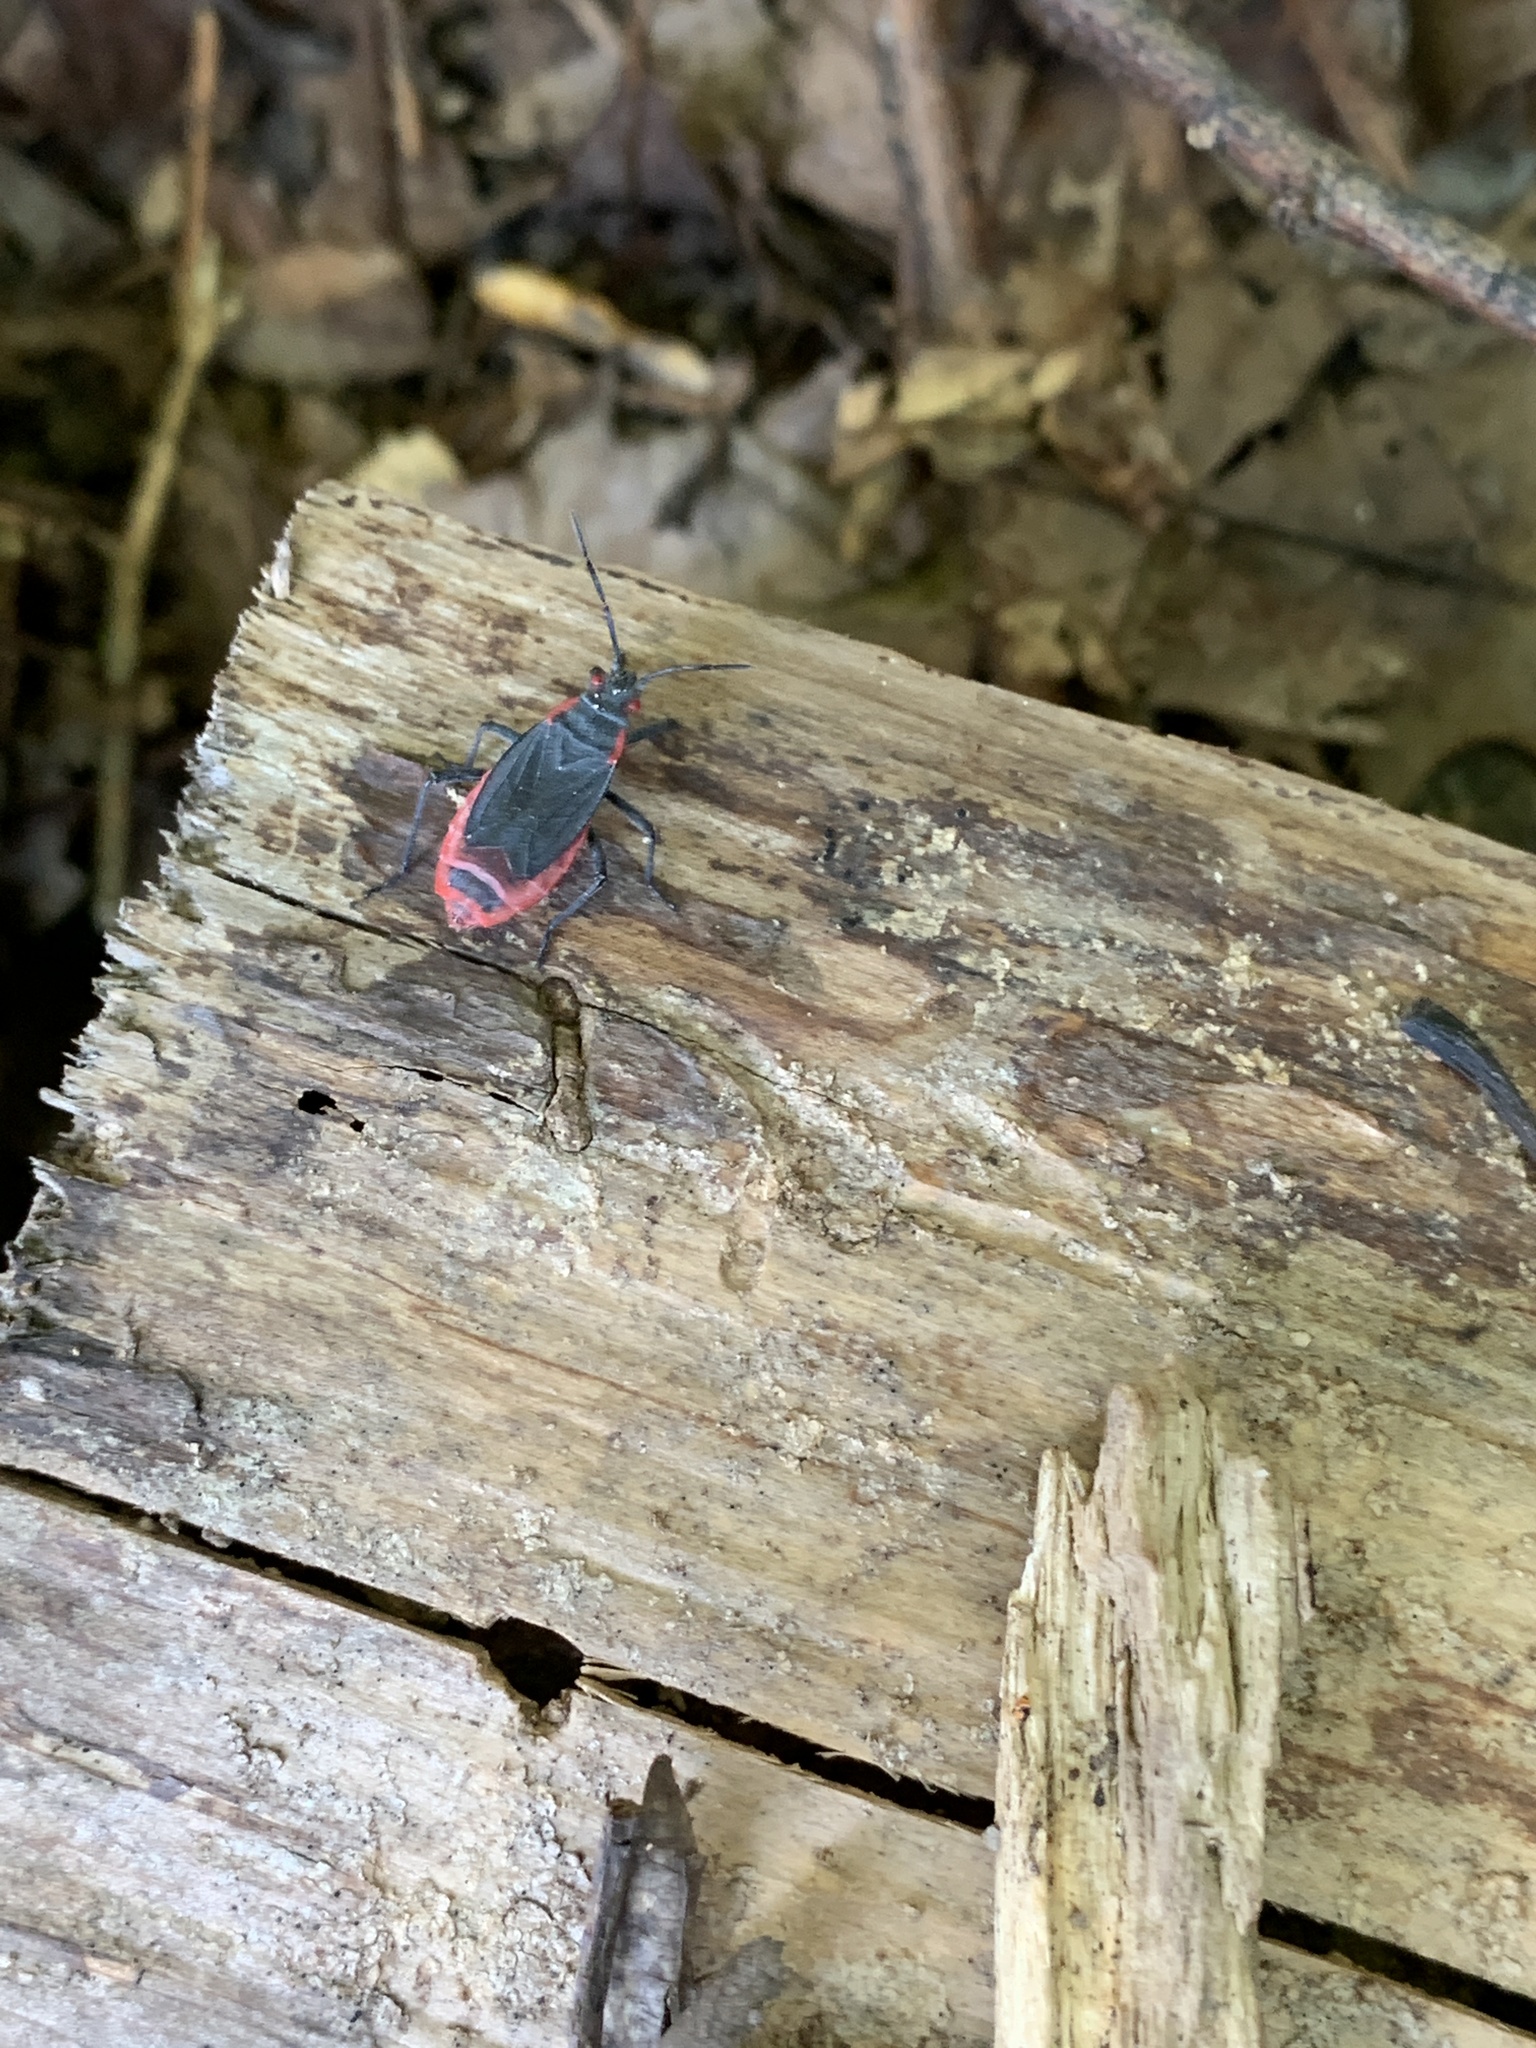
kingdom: Animalia
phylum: Arthropoda
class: Insecta
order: Hemiptera
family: Rhopalidae
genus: Jadera
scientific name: Jadera haematoloma
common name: Red-shouldered bug
